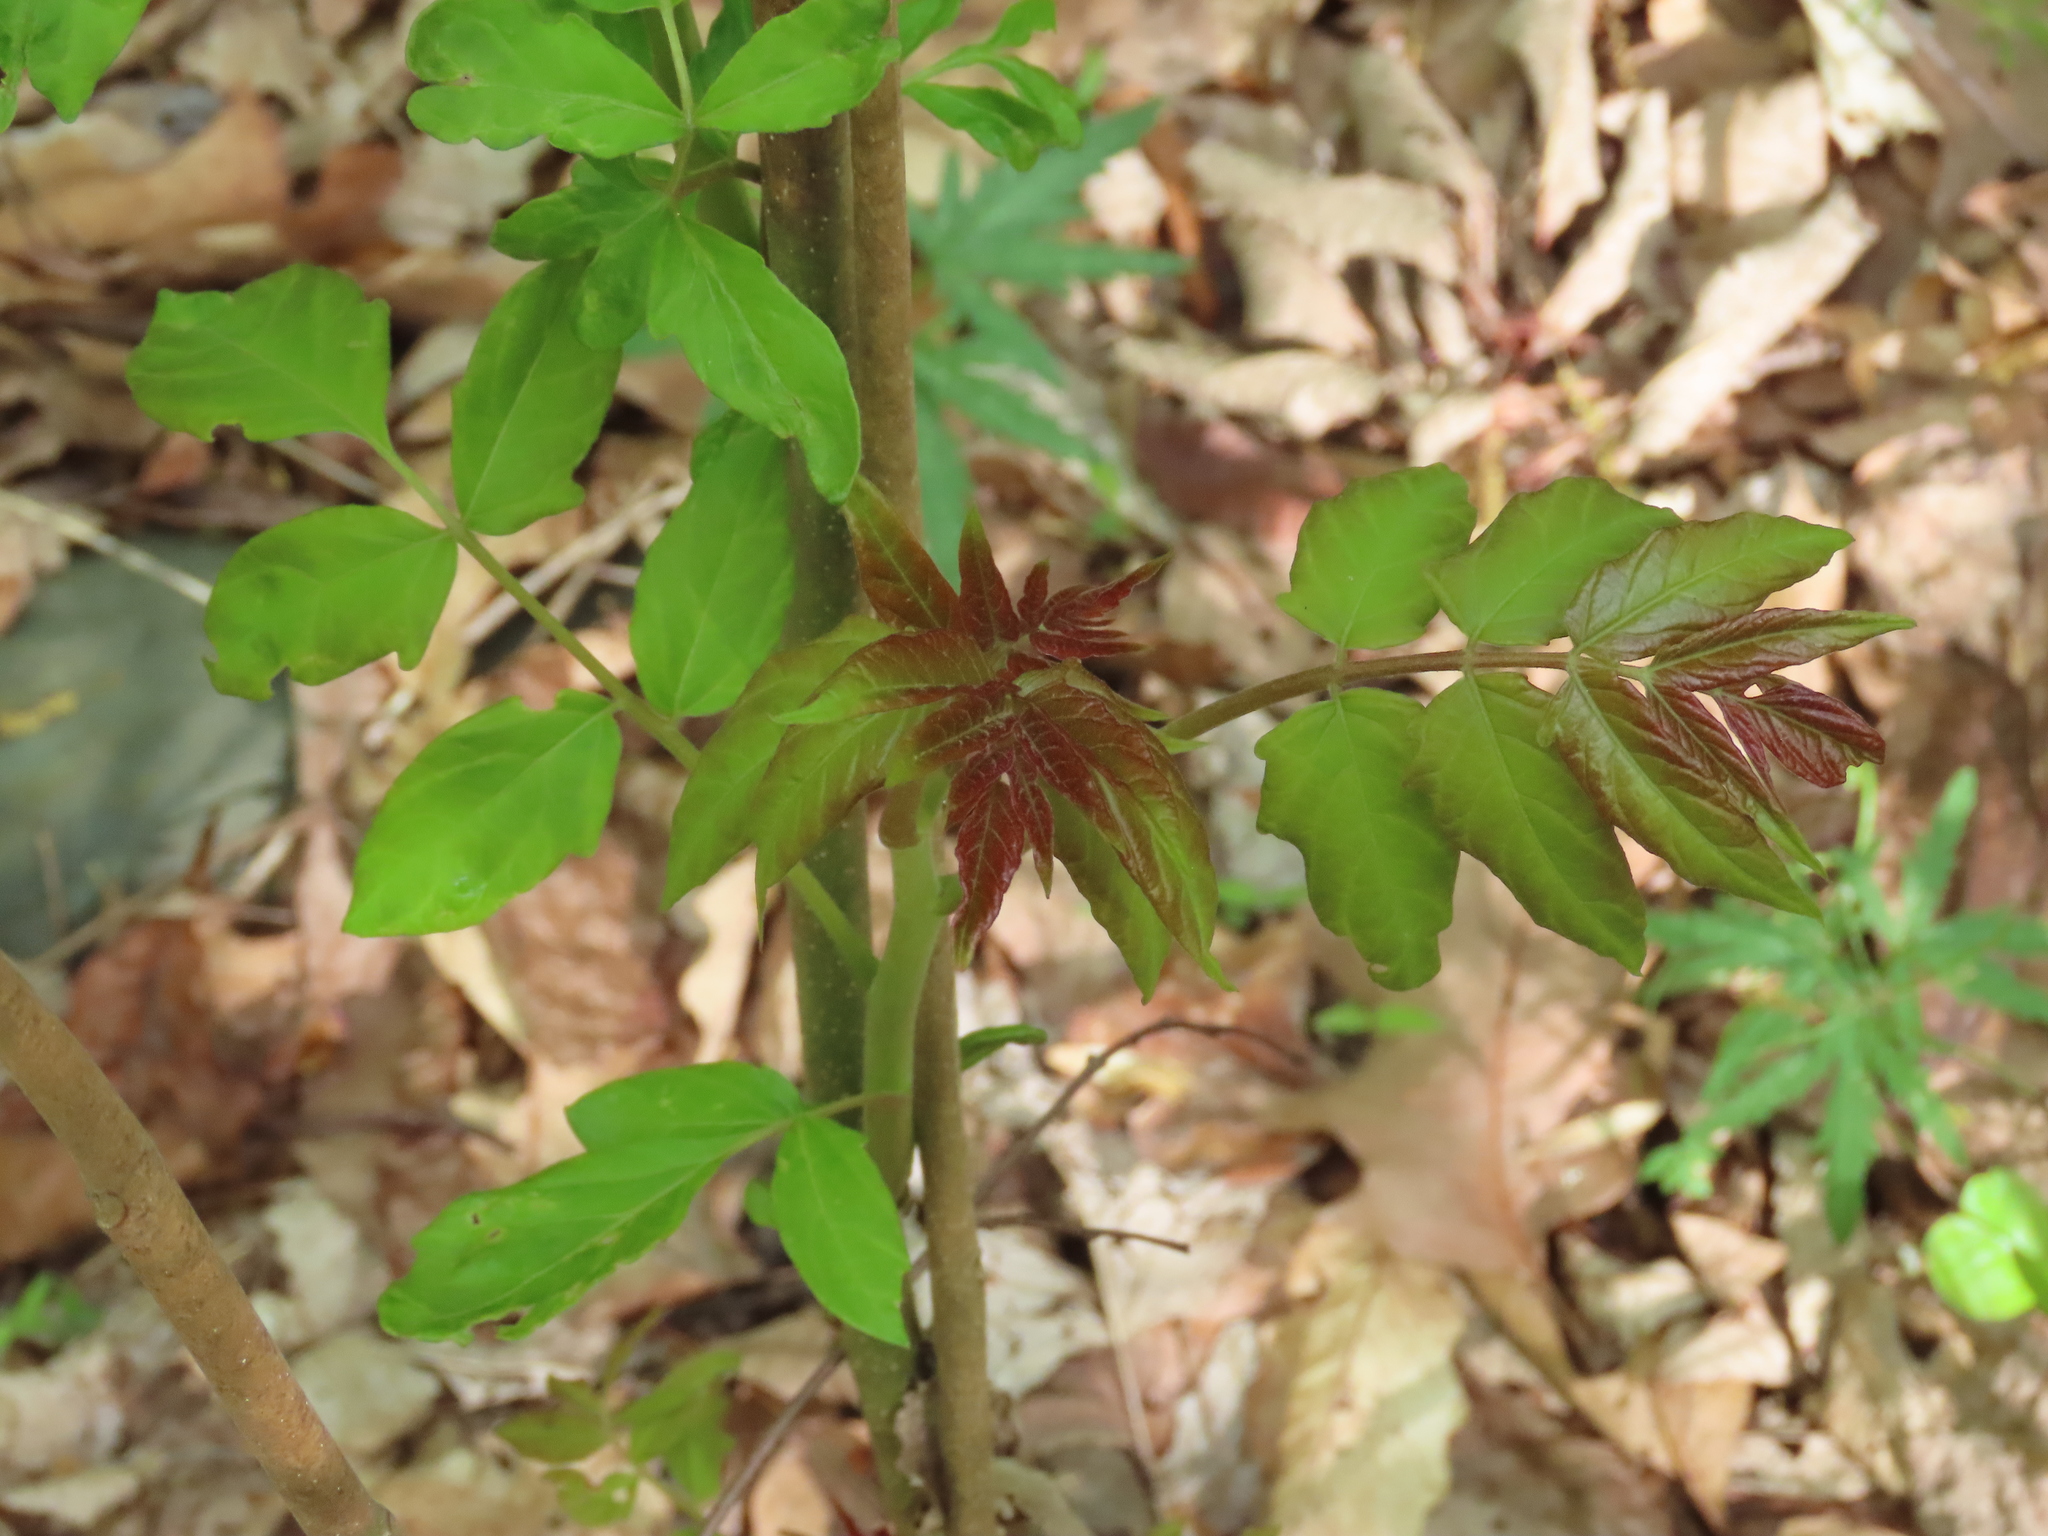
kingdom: Plantae
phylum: Tracheophyta
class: Magnoliopsida
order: Sapindales
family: Simaroubaceae
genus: Ailanthus
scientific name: Ailanthus altissima
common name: Tree-of-heaven
